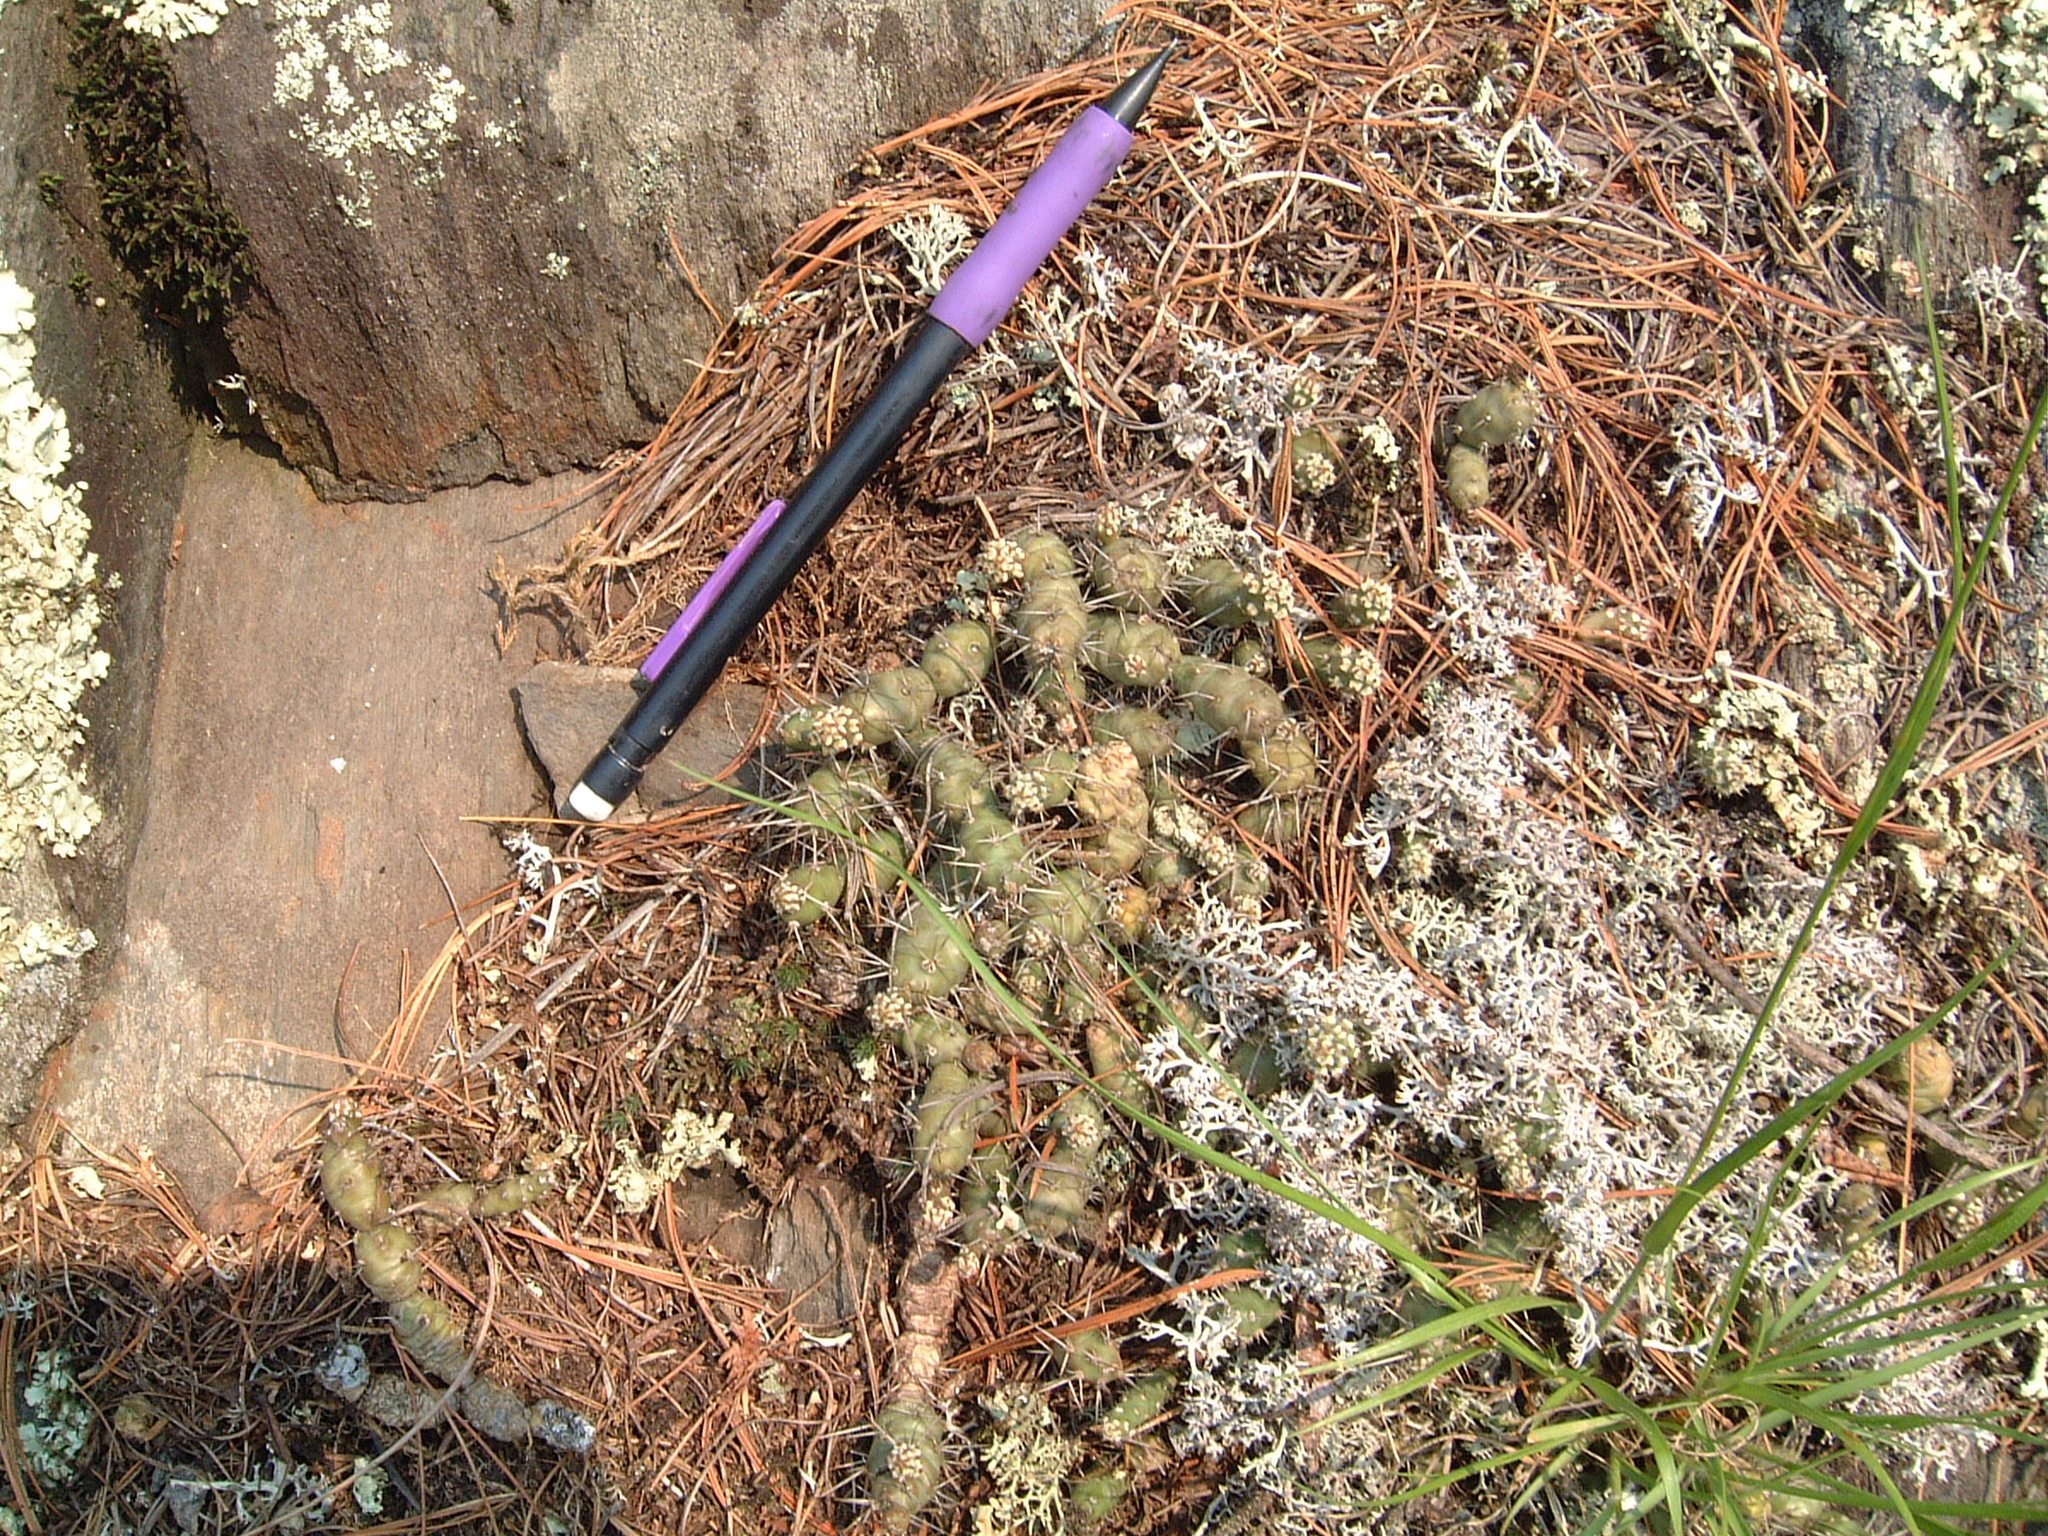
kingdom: Plantae
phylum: Tracheophyta
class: Magnoliopsida
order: Caryophyllales
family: Cactaceae
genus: Opuntia
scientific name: Opuntia fragilis
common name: Brittle cactus
